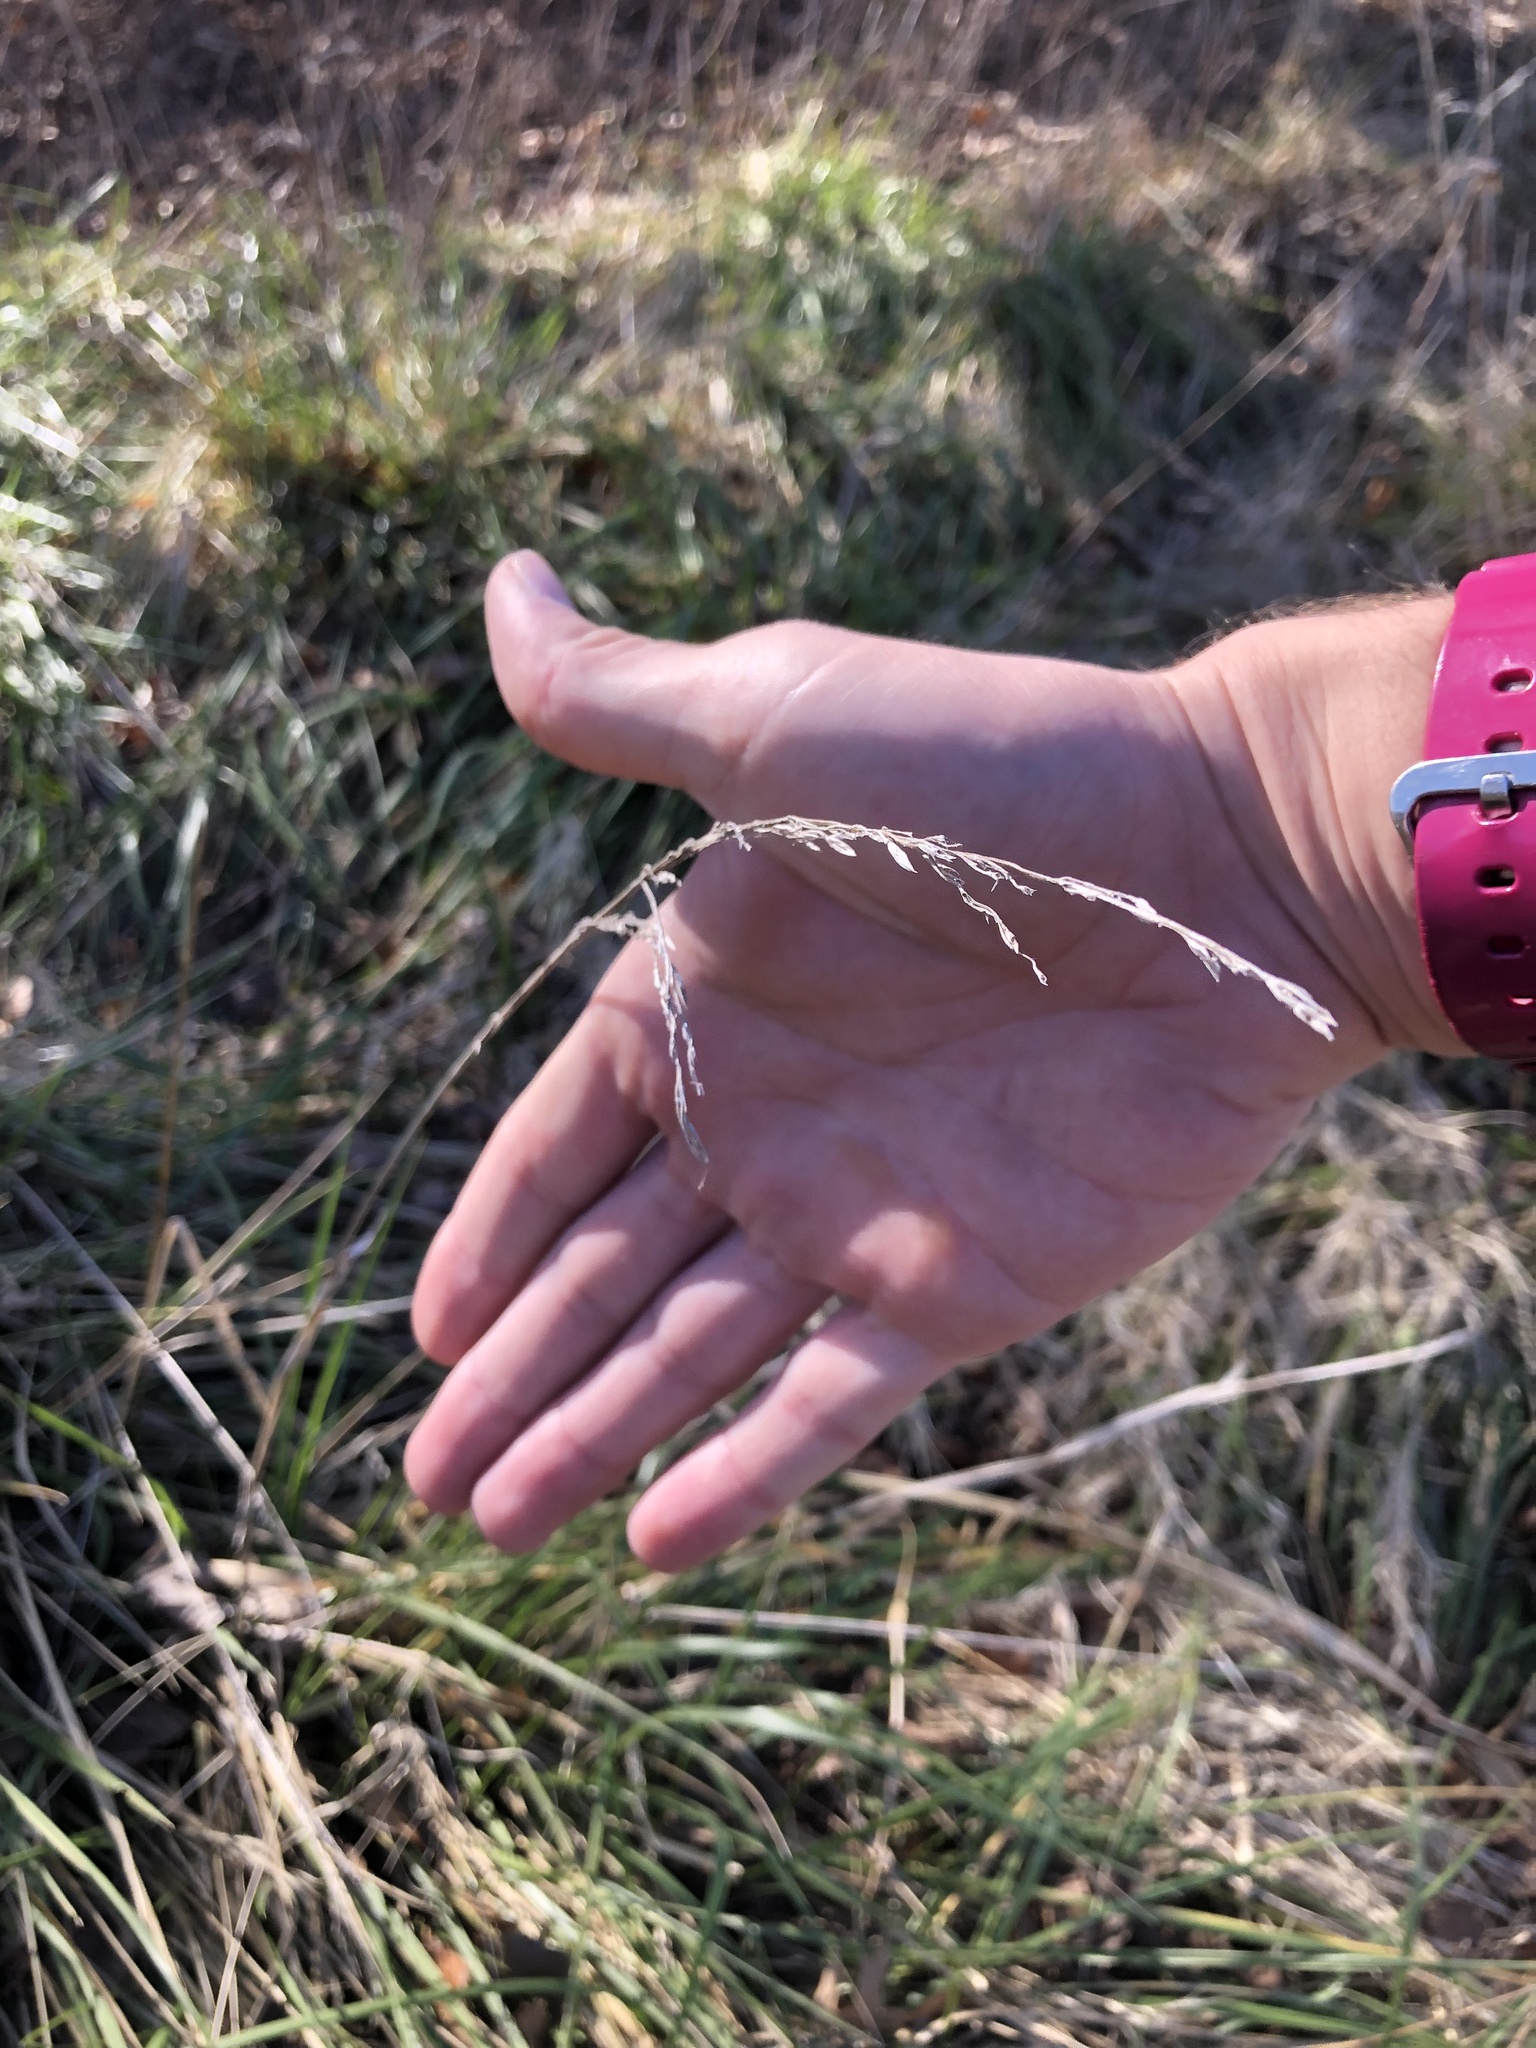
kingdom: Plantae
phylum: Tracheophyta
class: Liliopsida
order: Poales
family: Poaceae
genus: Lolium
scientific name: Lolium arundinaceum
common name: Reed fescue
